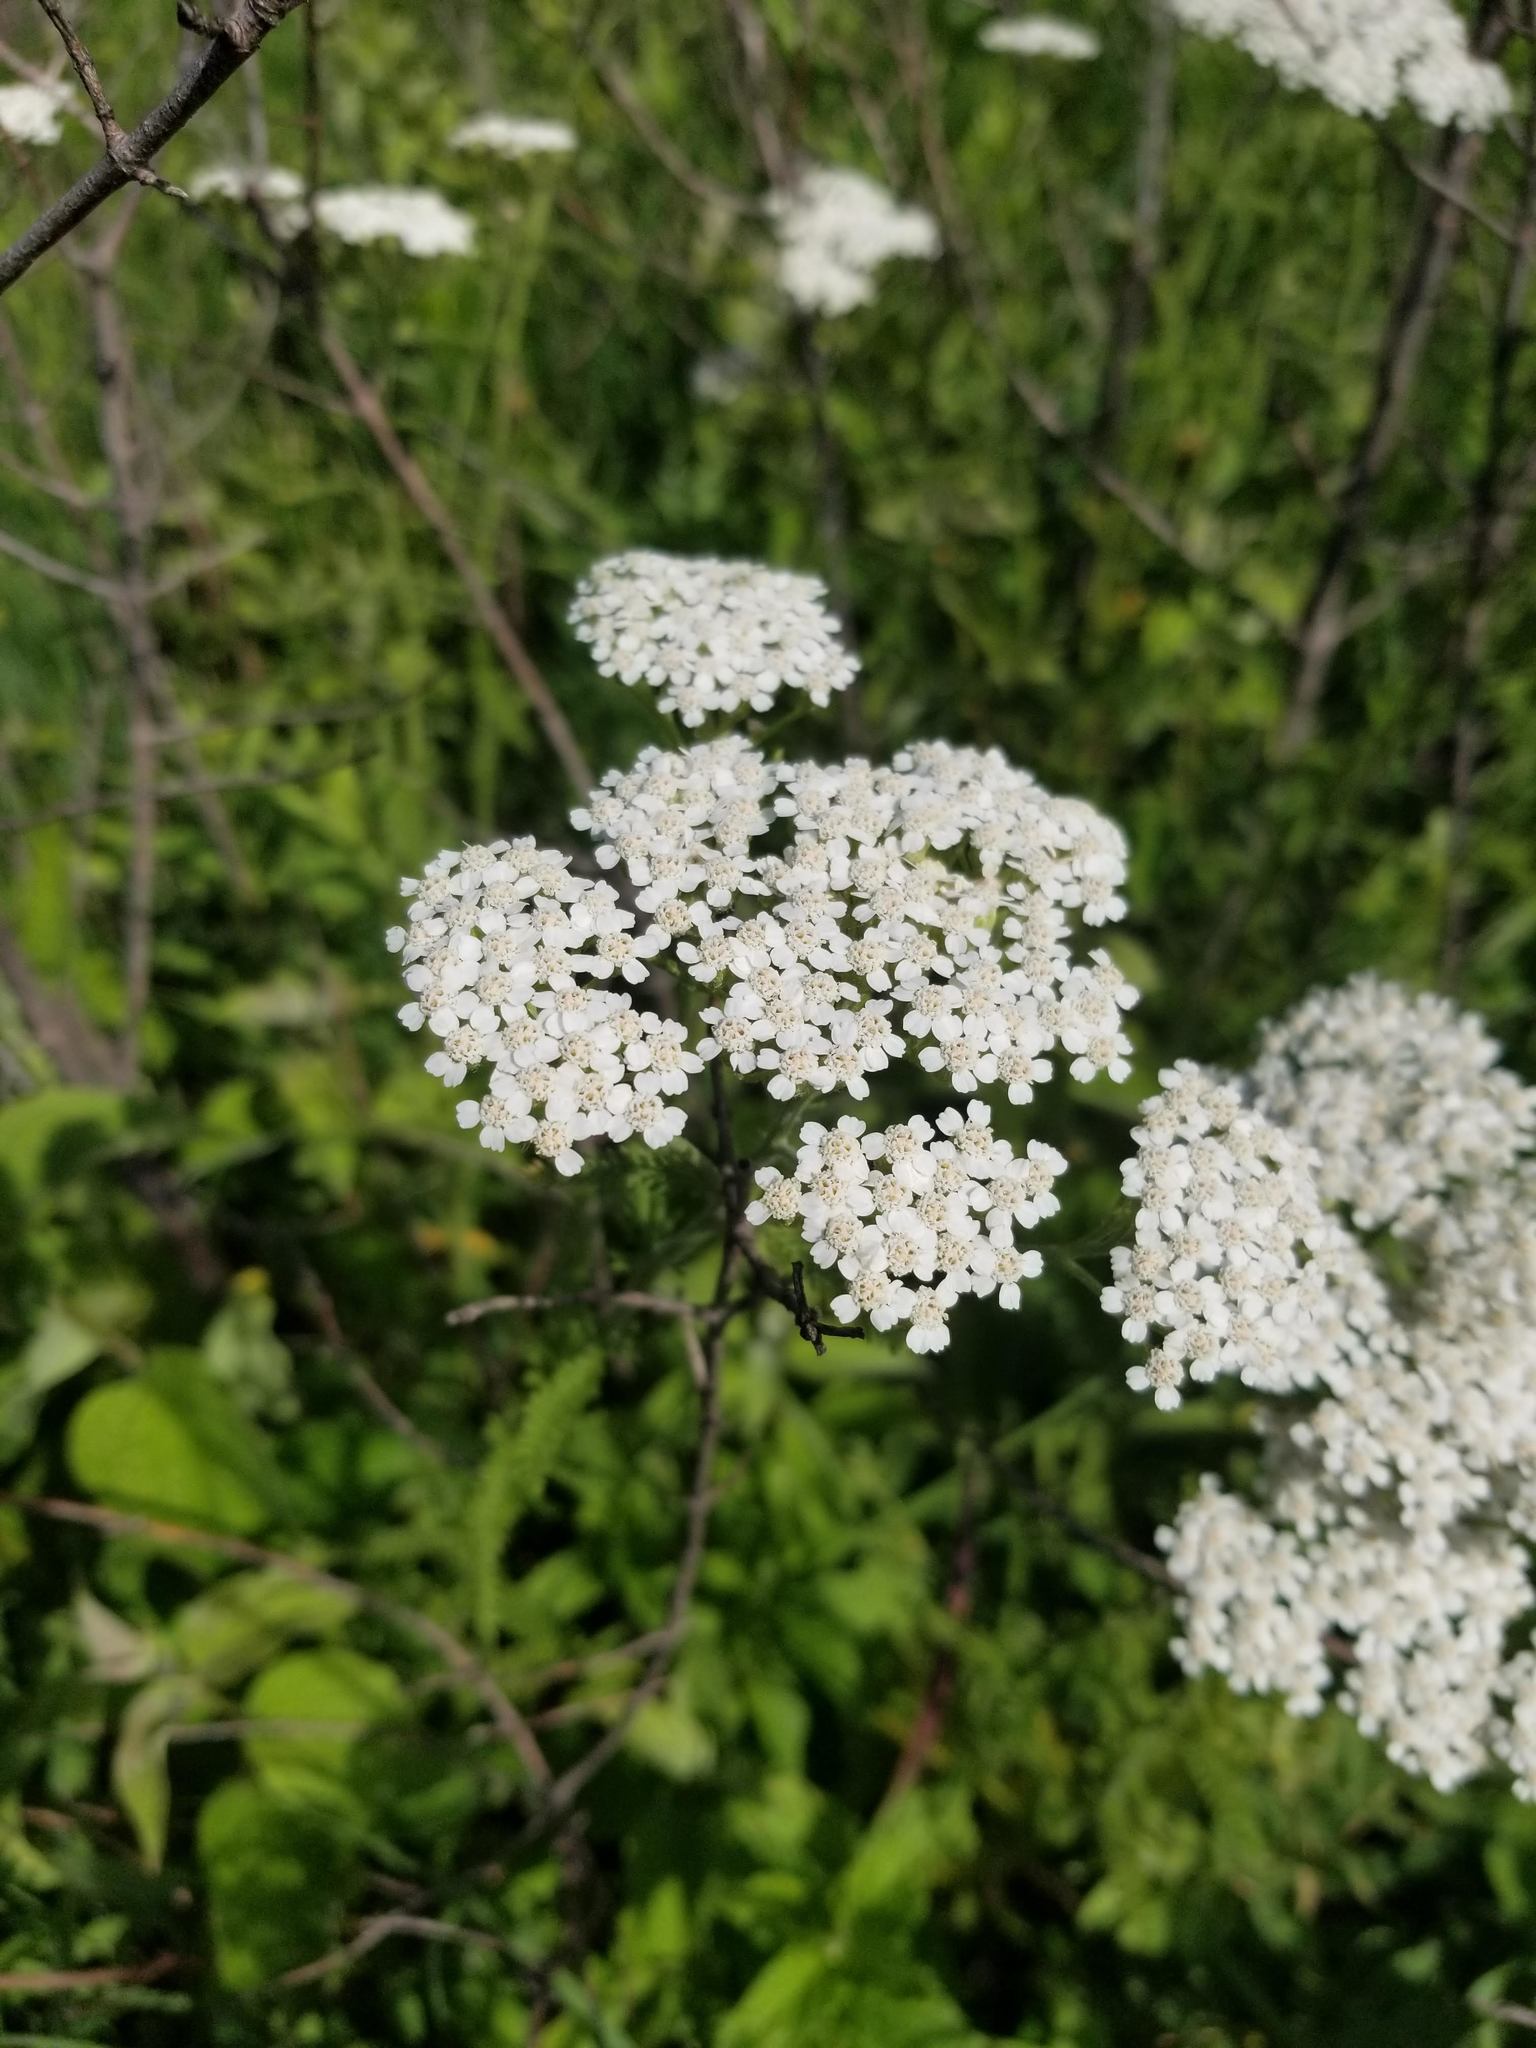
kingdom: Plantae
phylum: Tracheophyta
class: Magnoliopsida
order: Asterales
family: Asteraceae
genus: Achillea
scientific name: Achillea millefolium
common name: Yarrow
